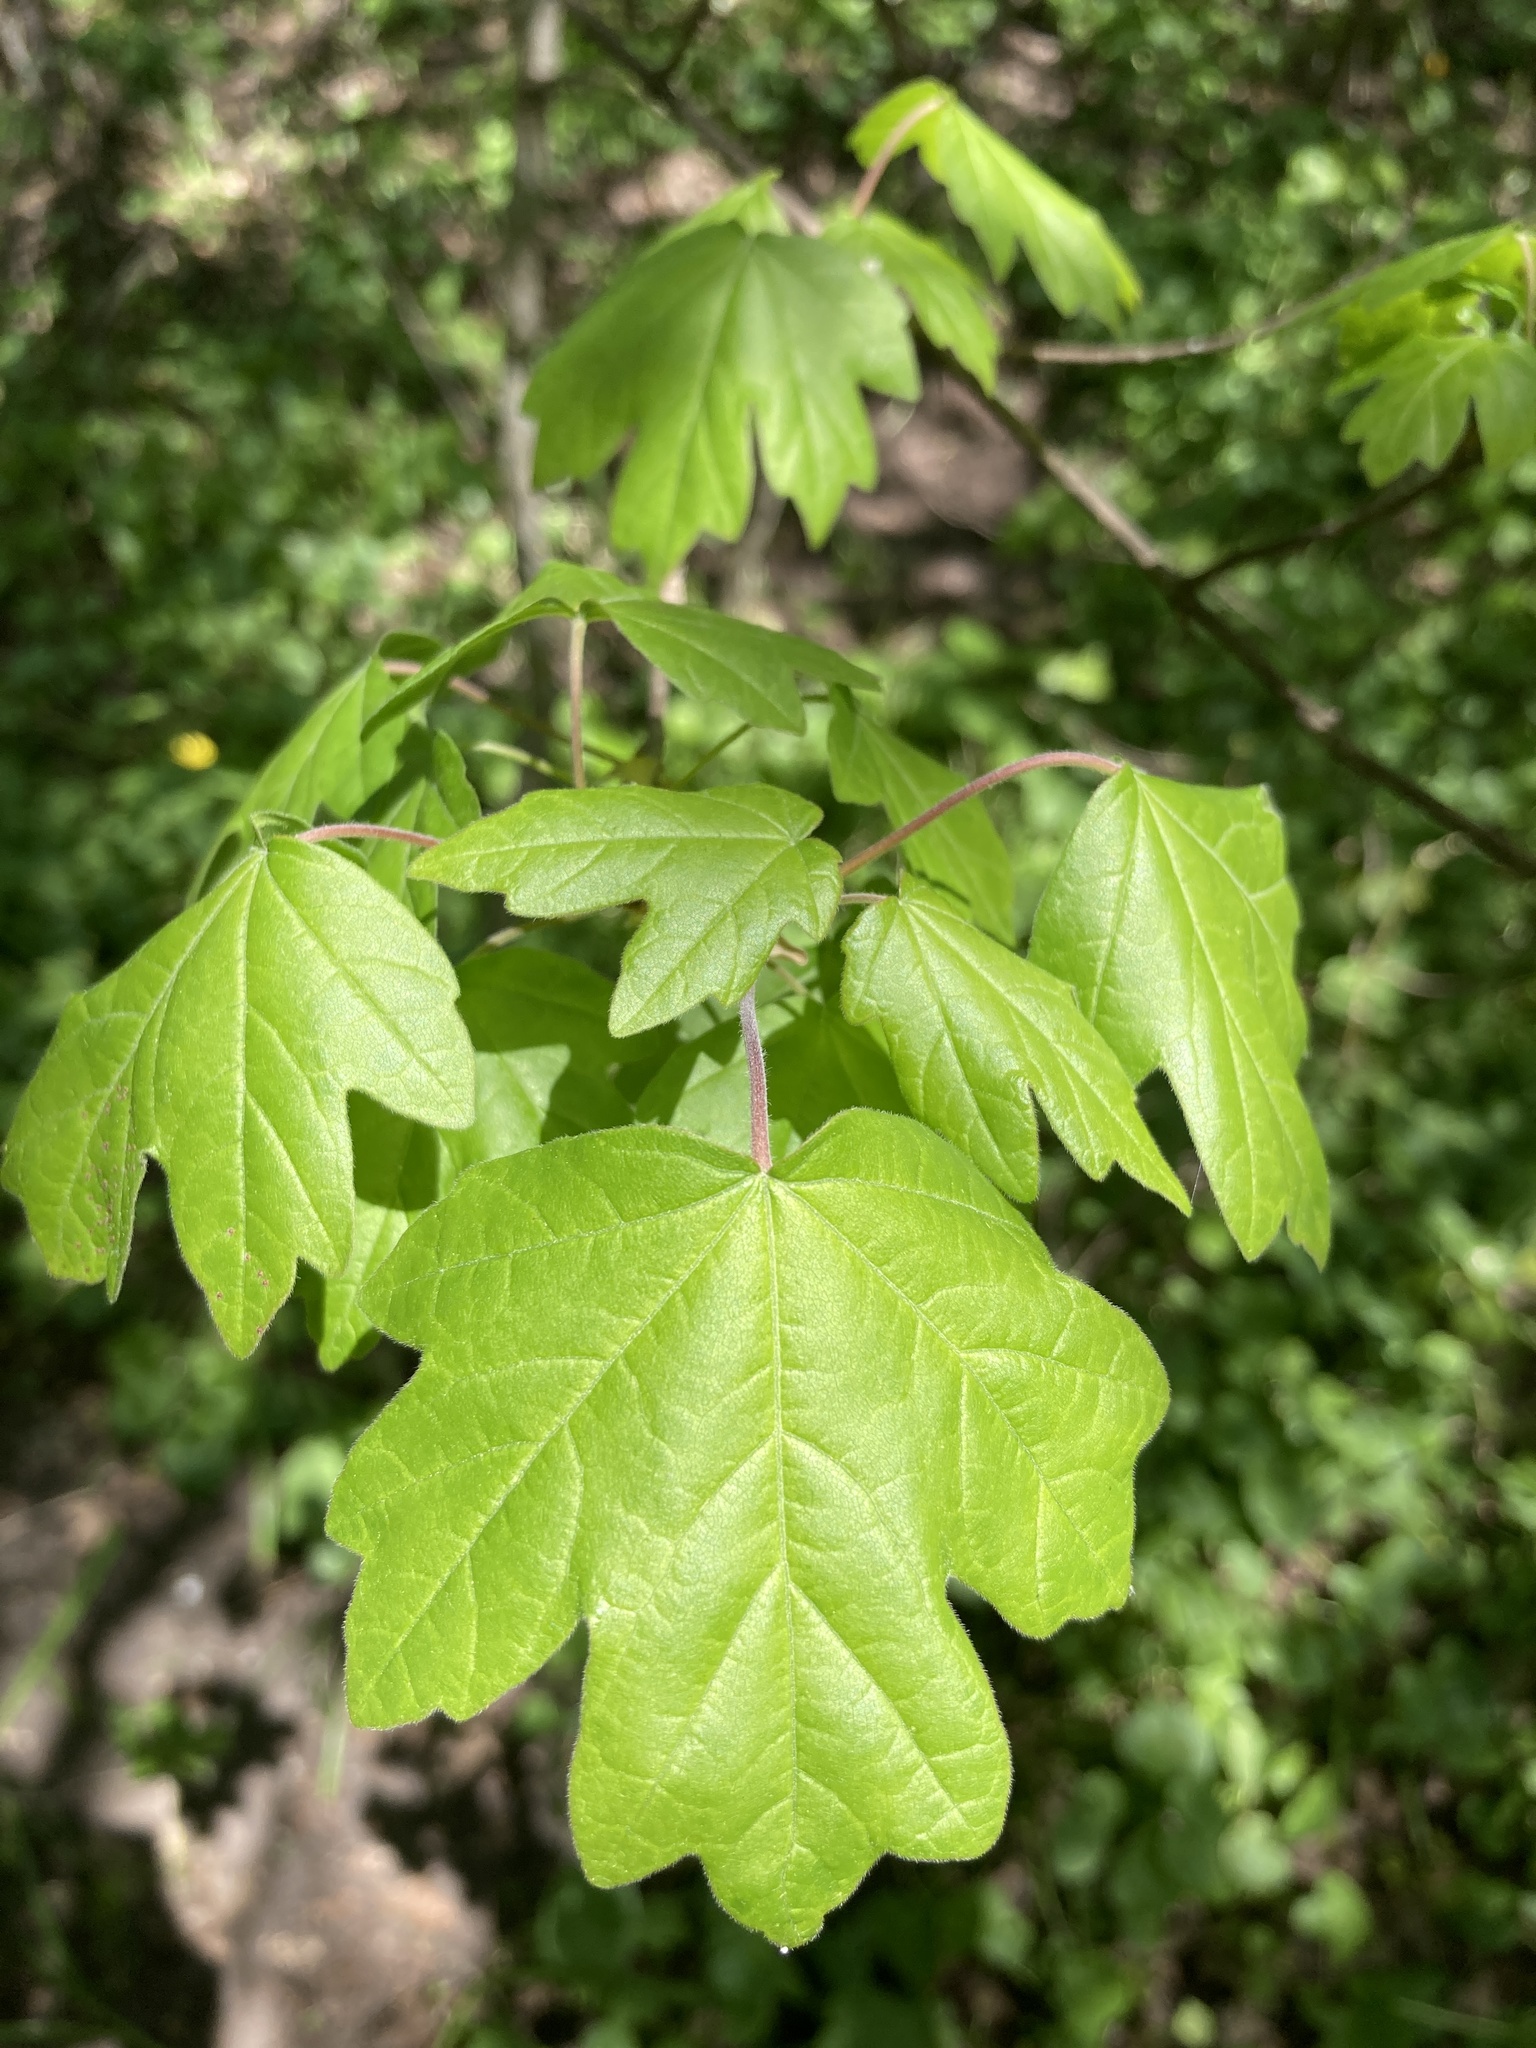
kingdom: Plantae
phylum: Tracheophyta
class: Magnoliopsida
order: Sapindales
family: Sapindaceae
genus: Acer
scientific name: Acer campestre
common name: Field maple
